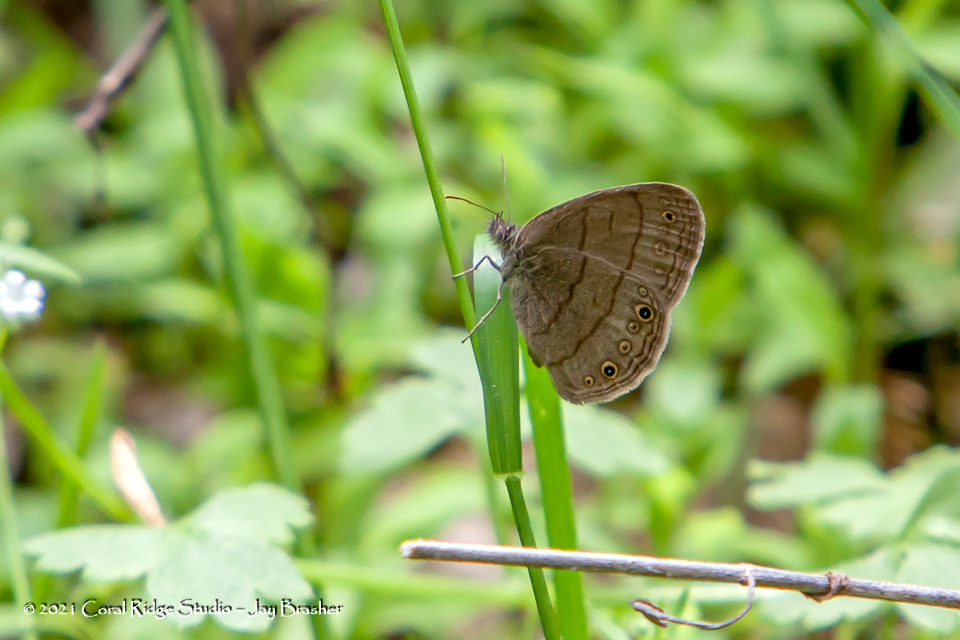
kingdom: Animalia
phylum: Arthropoda
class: Insecta
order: Lepidoptera
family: Nymphalidae
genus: Hermeuptychia
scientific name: Hermeuptychia hermes
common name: Hermes satyr
